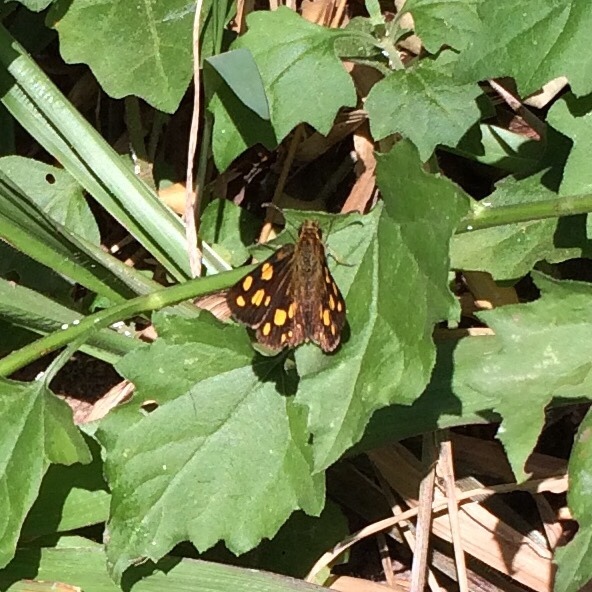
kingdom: Animalia
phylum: Arthropoda
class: Insecta
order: Lepidoptera
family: Hesperiidae
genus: Metisella
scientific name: Metisella metis
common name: Western gold-spotted sylph
